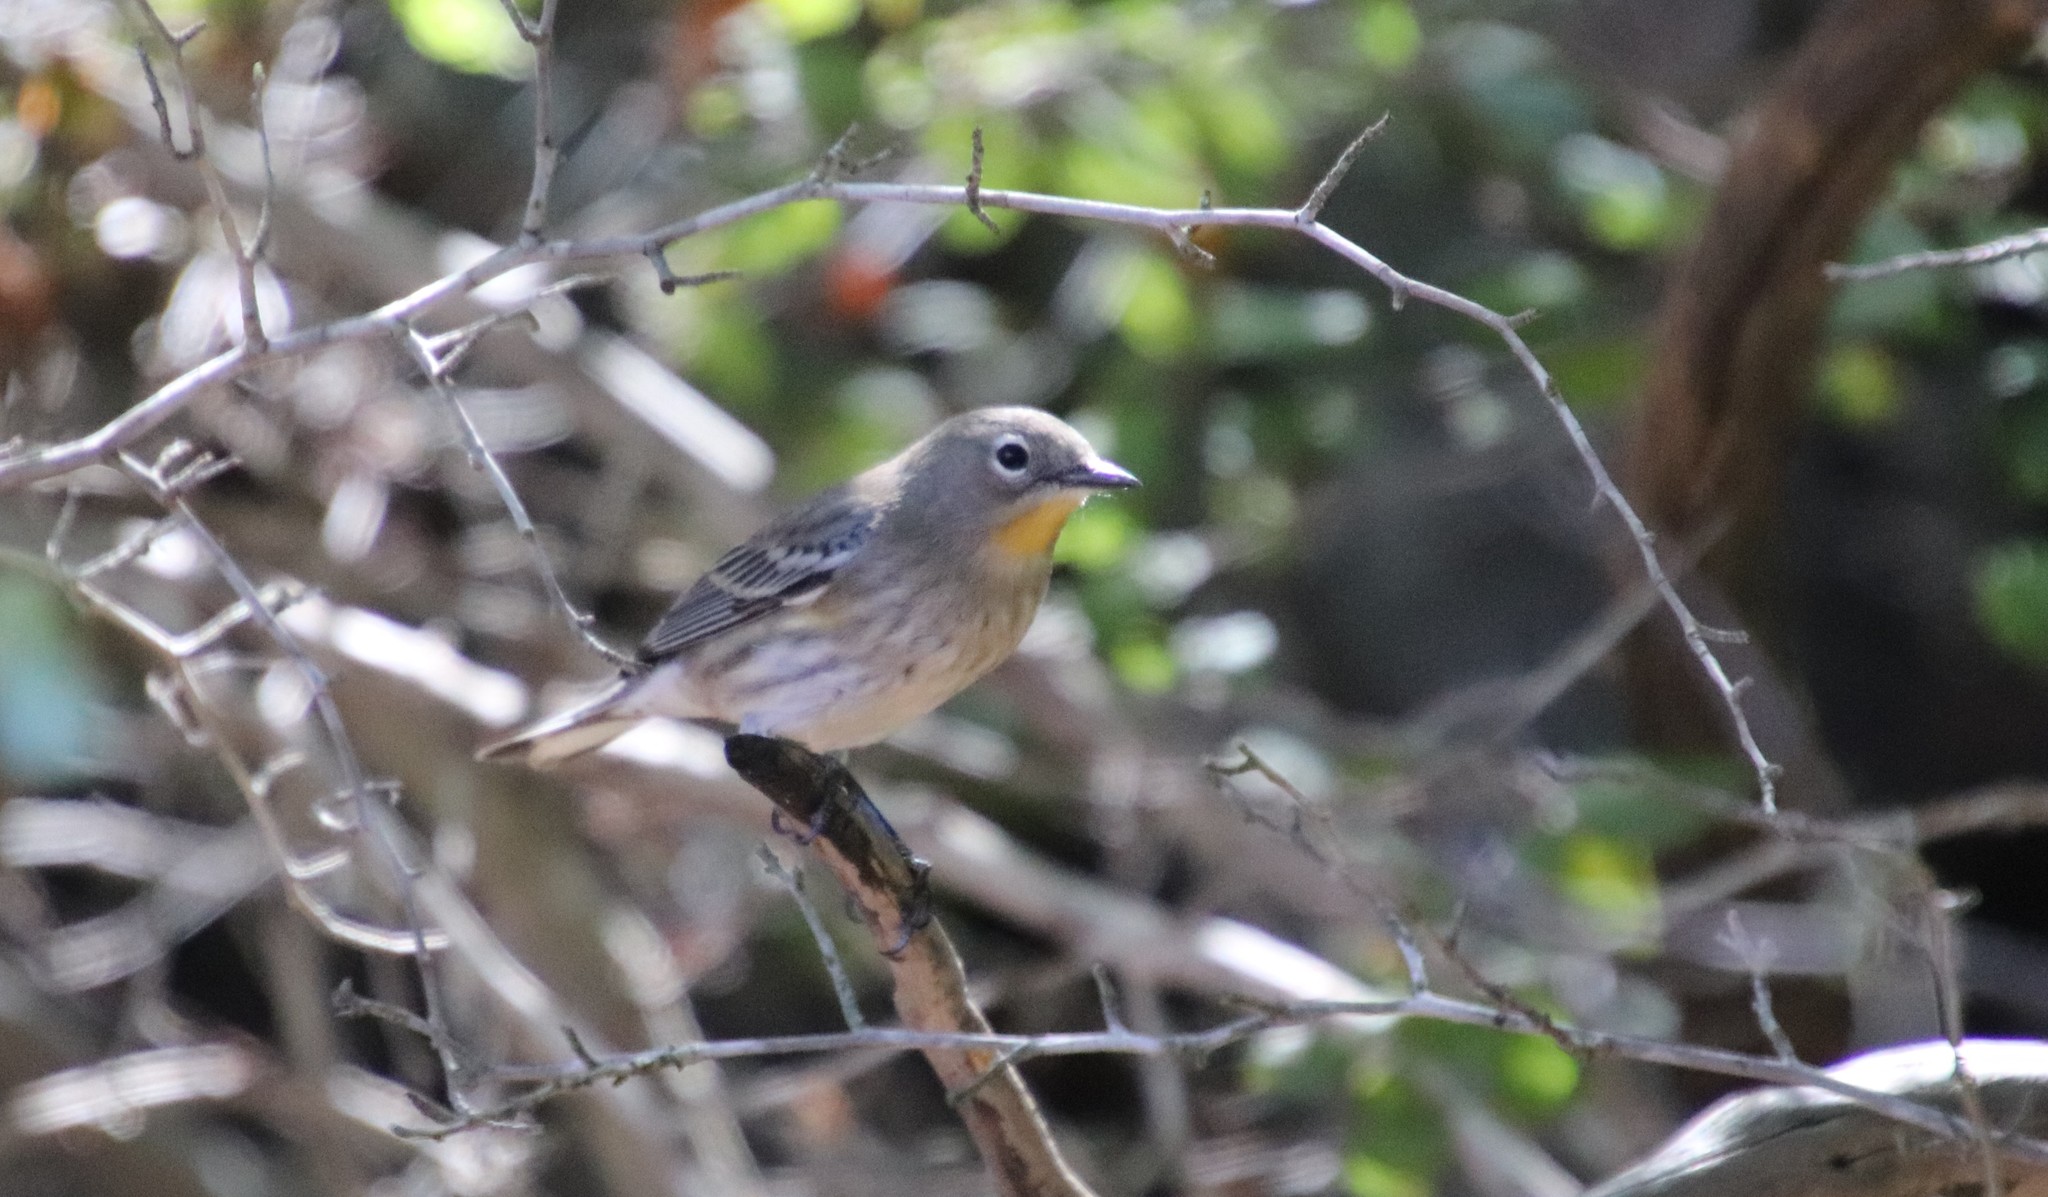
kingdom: Animalia
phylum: Chordata
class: Aves
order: Passeriformes
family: Parulidae
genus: Setophaga
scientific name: Setophaga auduboni
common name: Audubon's warbler
